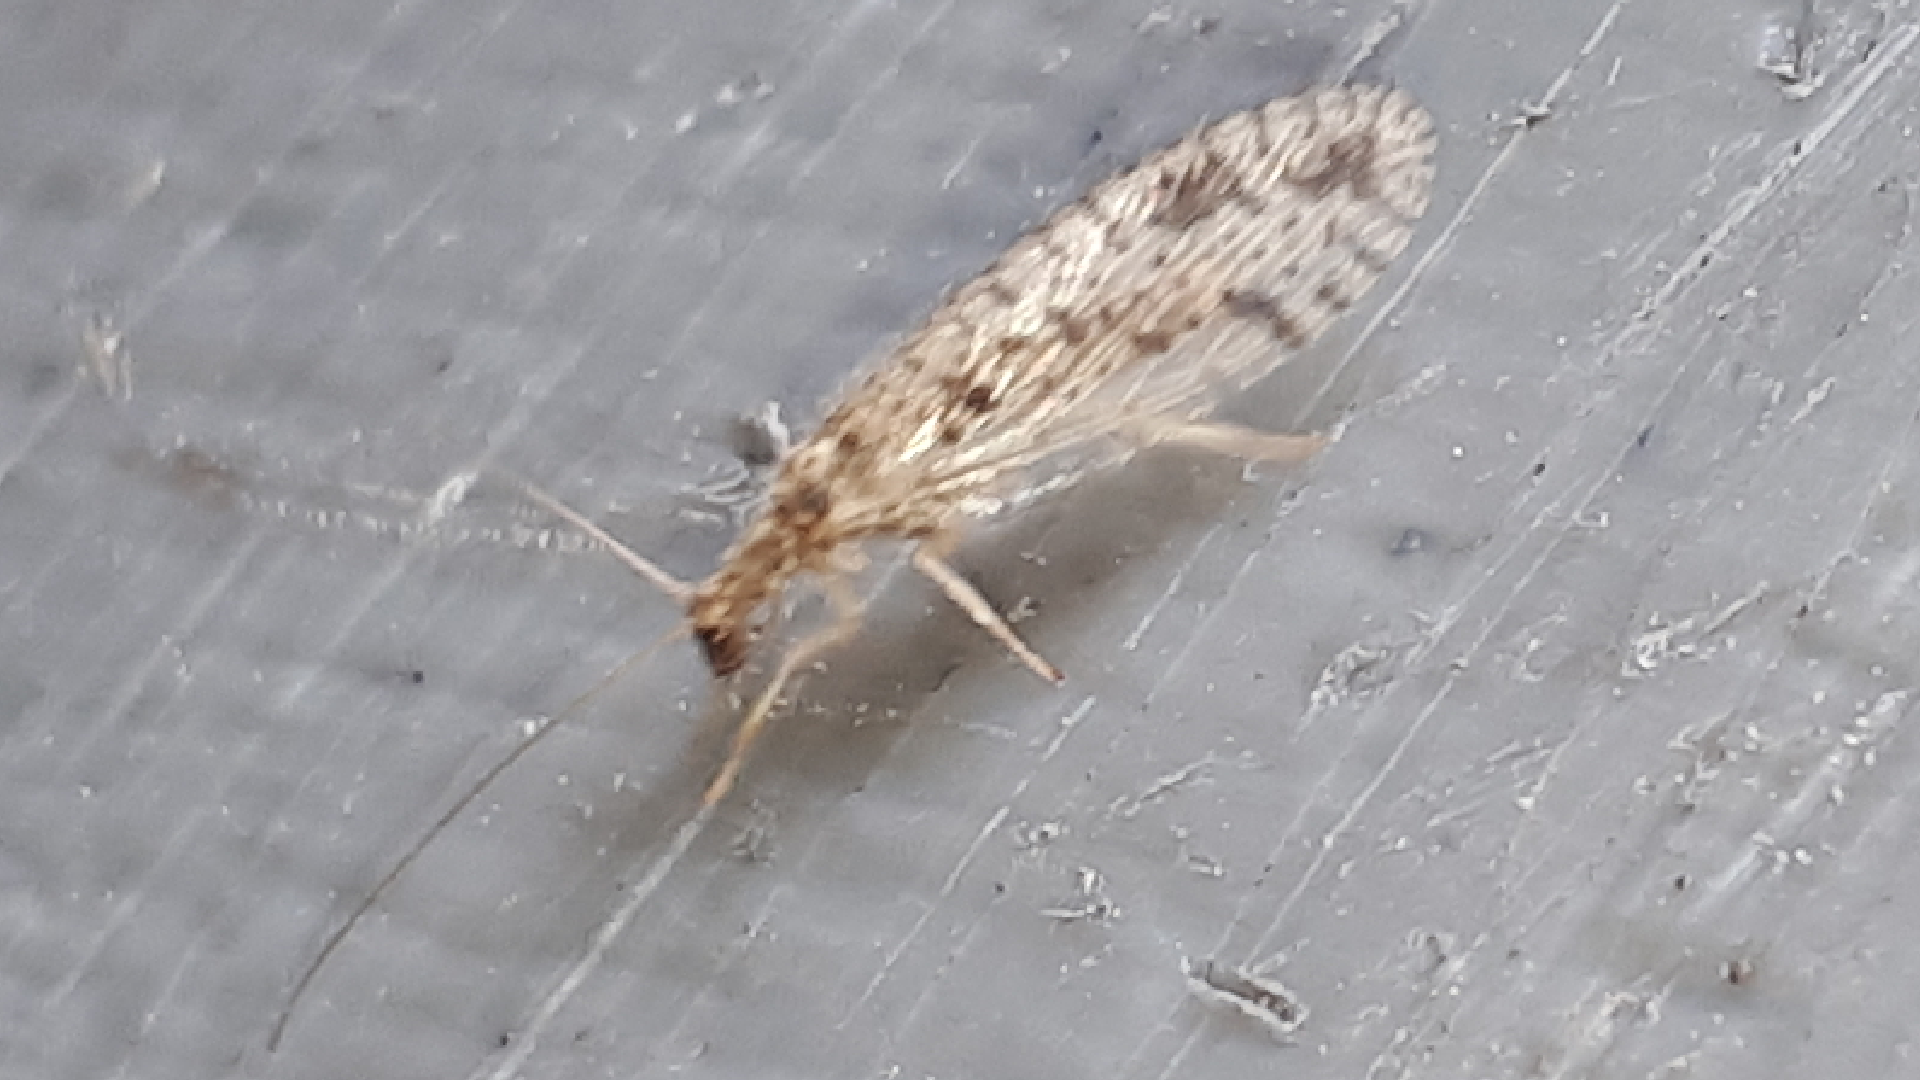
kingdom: Animalia
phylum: Arthropoda
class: Insecta
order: Neuroptera
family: Hemerobiidae
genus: Micromus
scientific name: Micromus variegatus
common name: Brown lacewing
